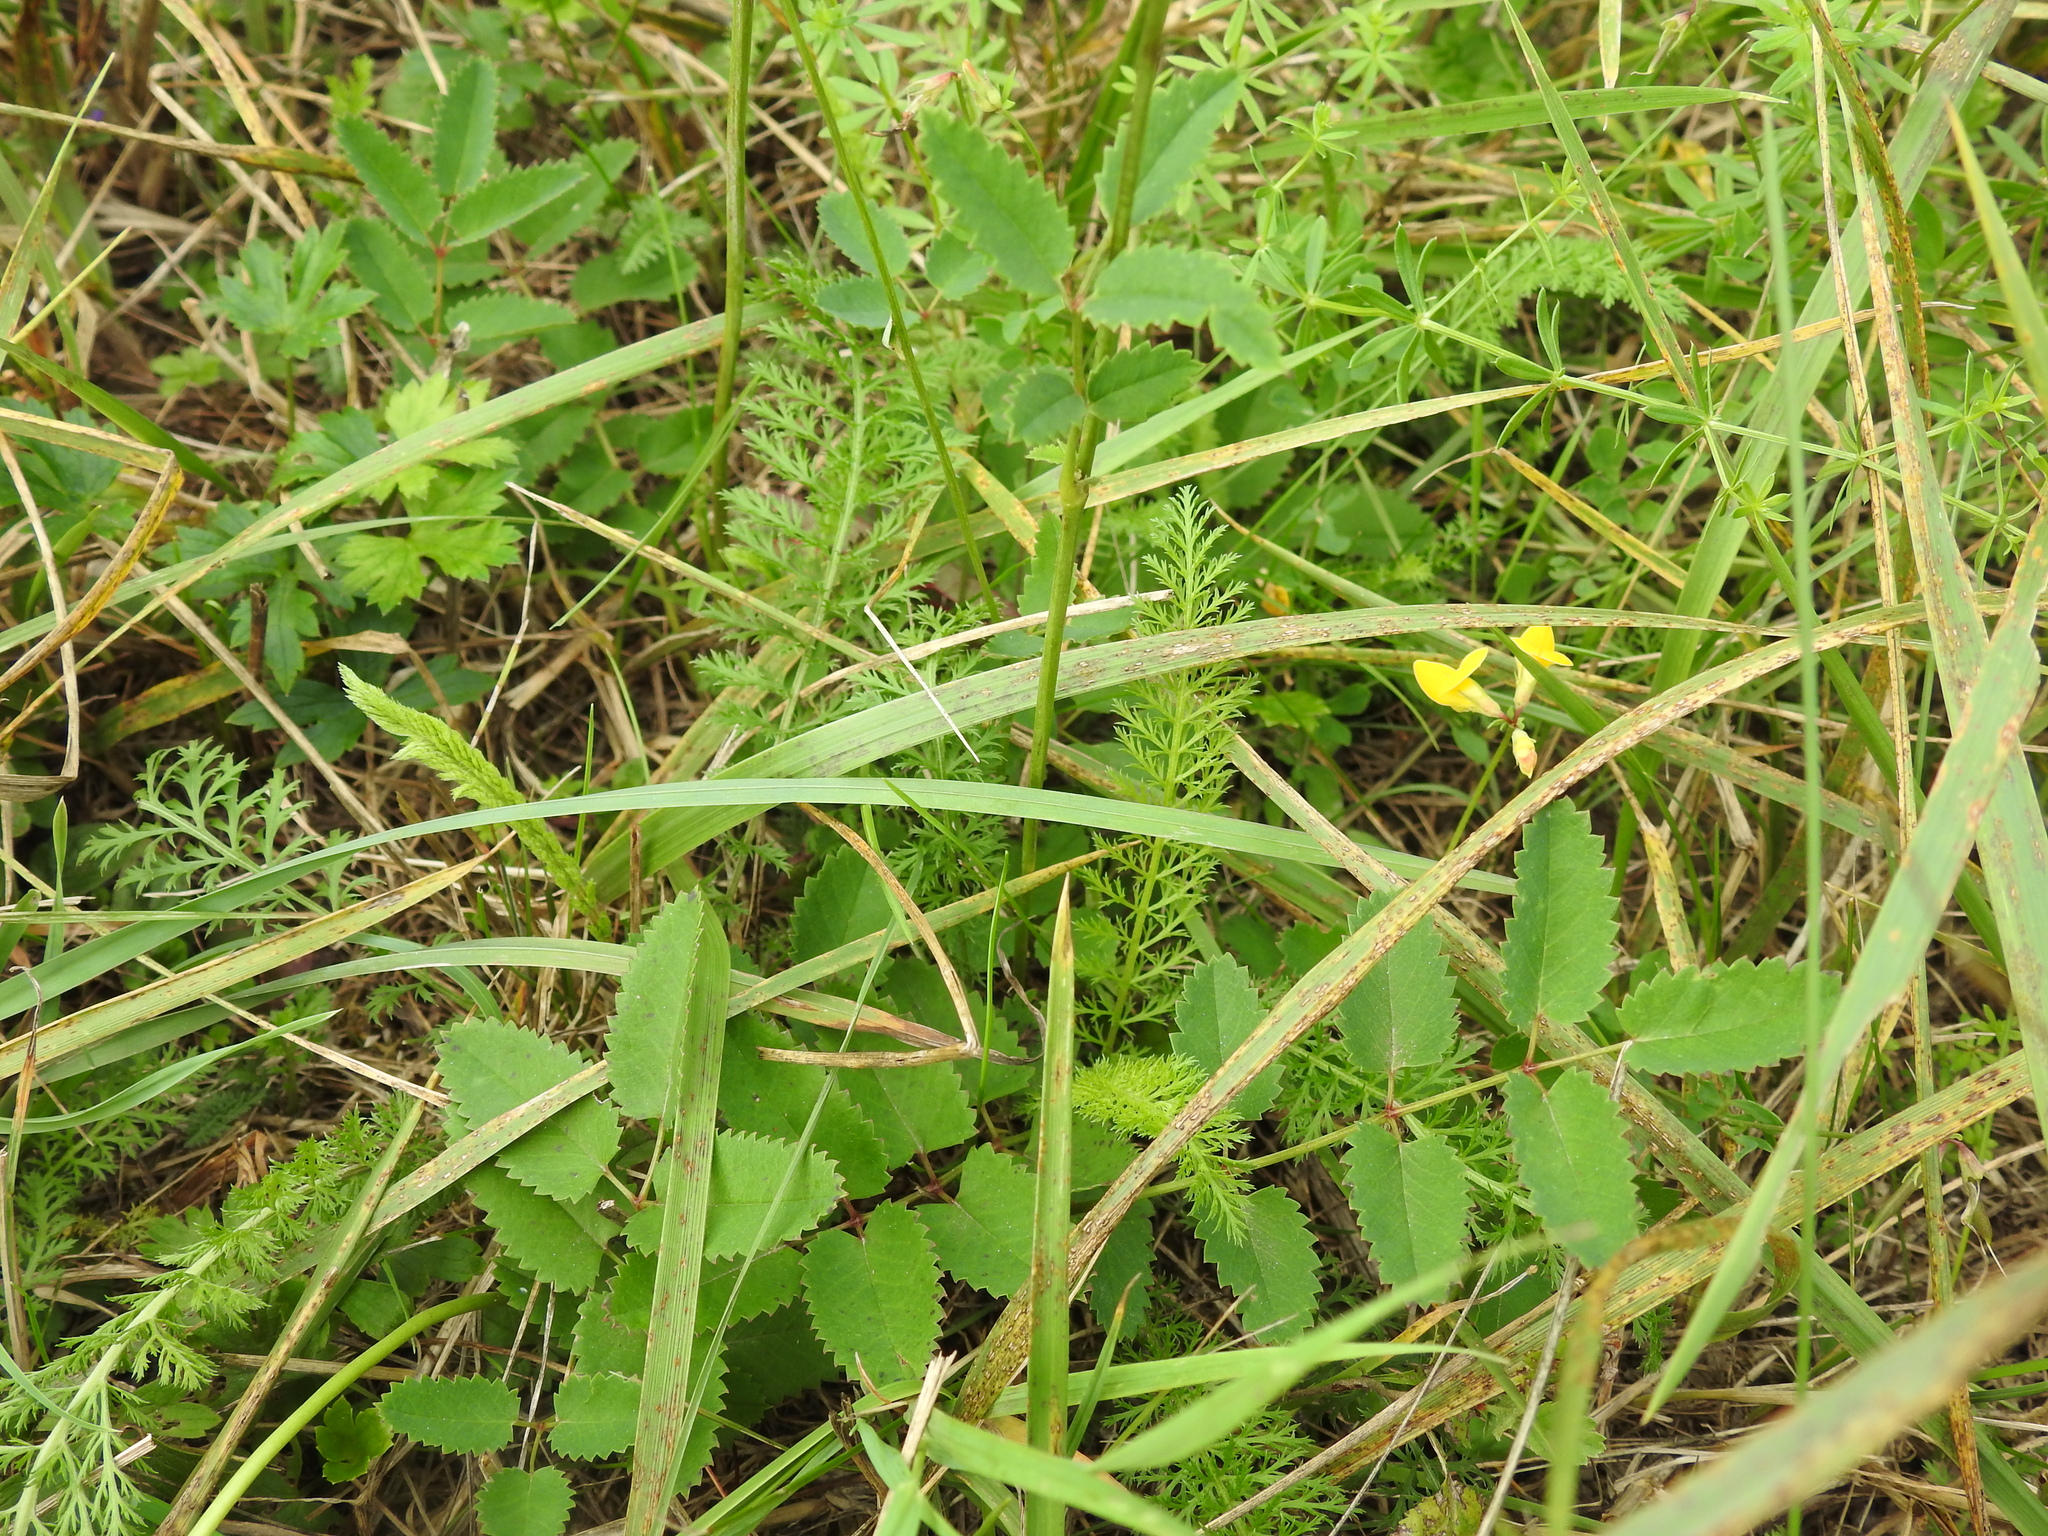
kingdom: Plantae
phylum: Tracheophyta
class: Magnoliopsida
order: Rosales
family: Rosaceae
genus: Sanguisorba
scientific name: Sanguisorba officinalis
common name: Great burnet
